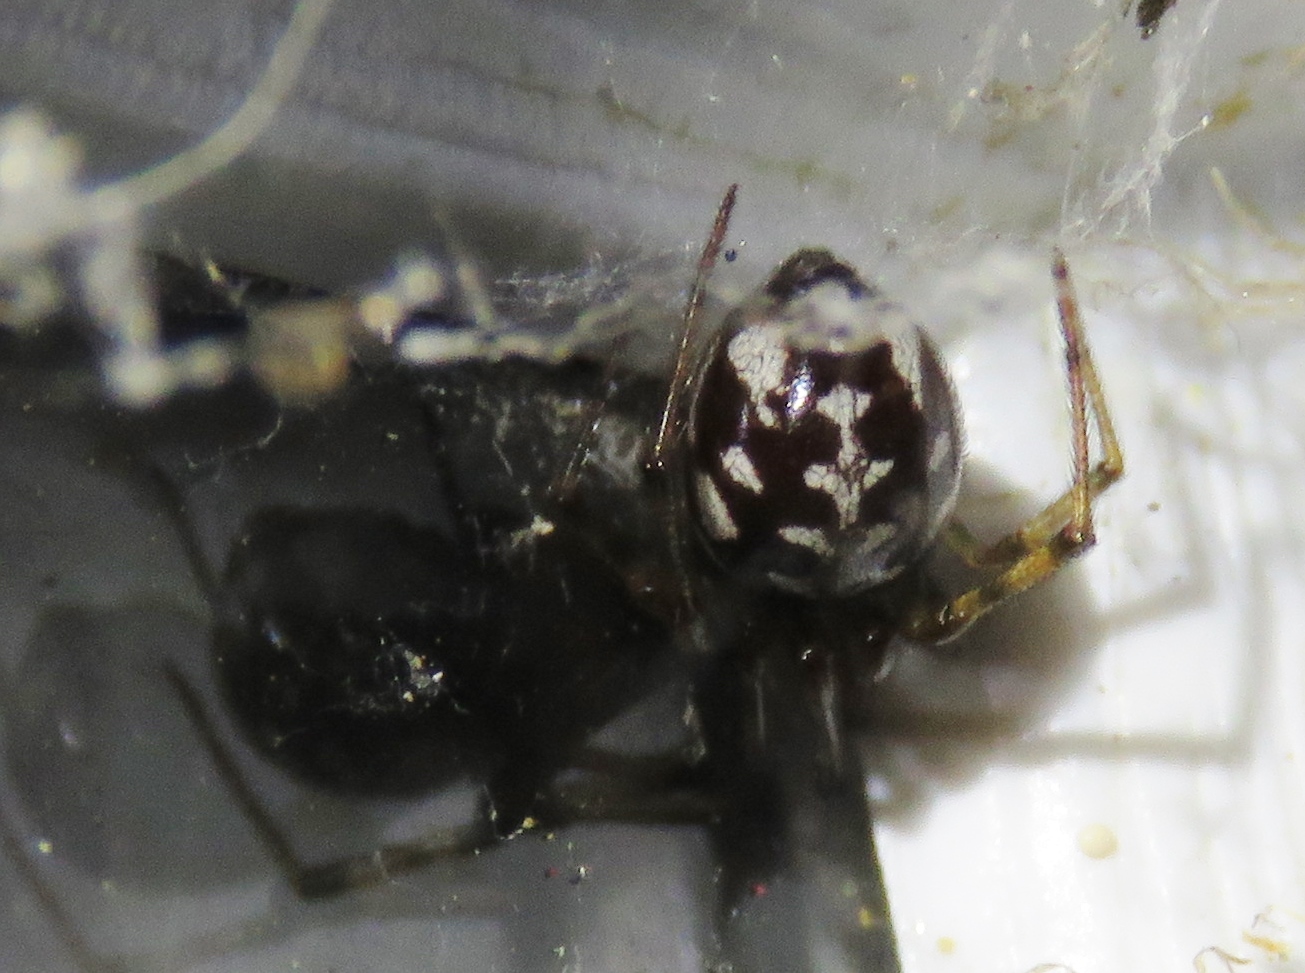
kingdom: Animalia
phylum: Arthropoda
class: Arachnida
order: Araneae
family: Theridiidae
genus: Steatoda
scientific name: Steatoda triangulosa
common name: Triangulate bud spider
